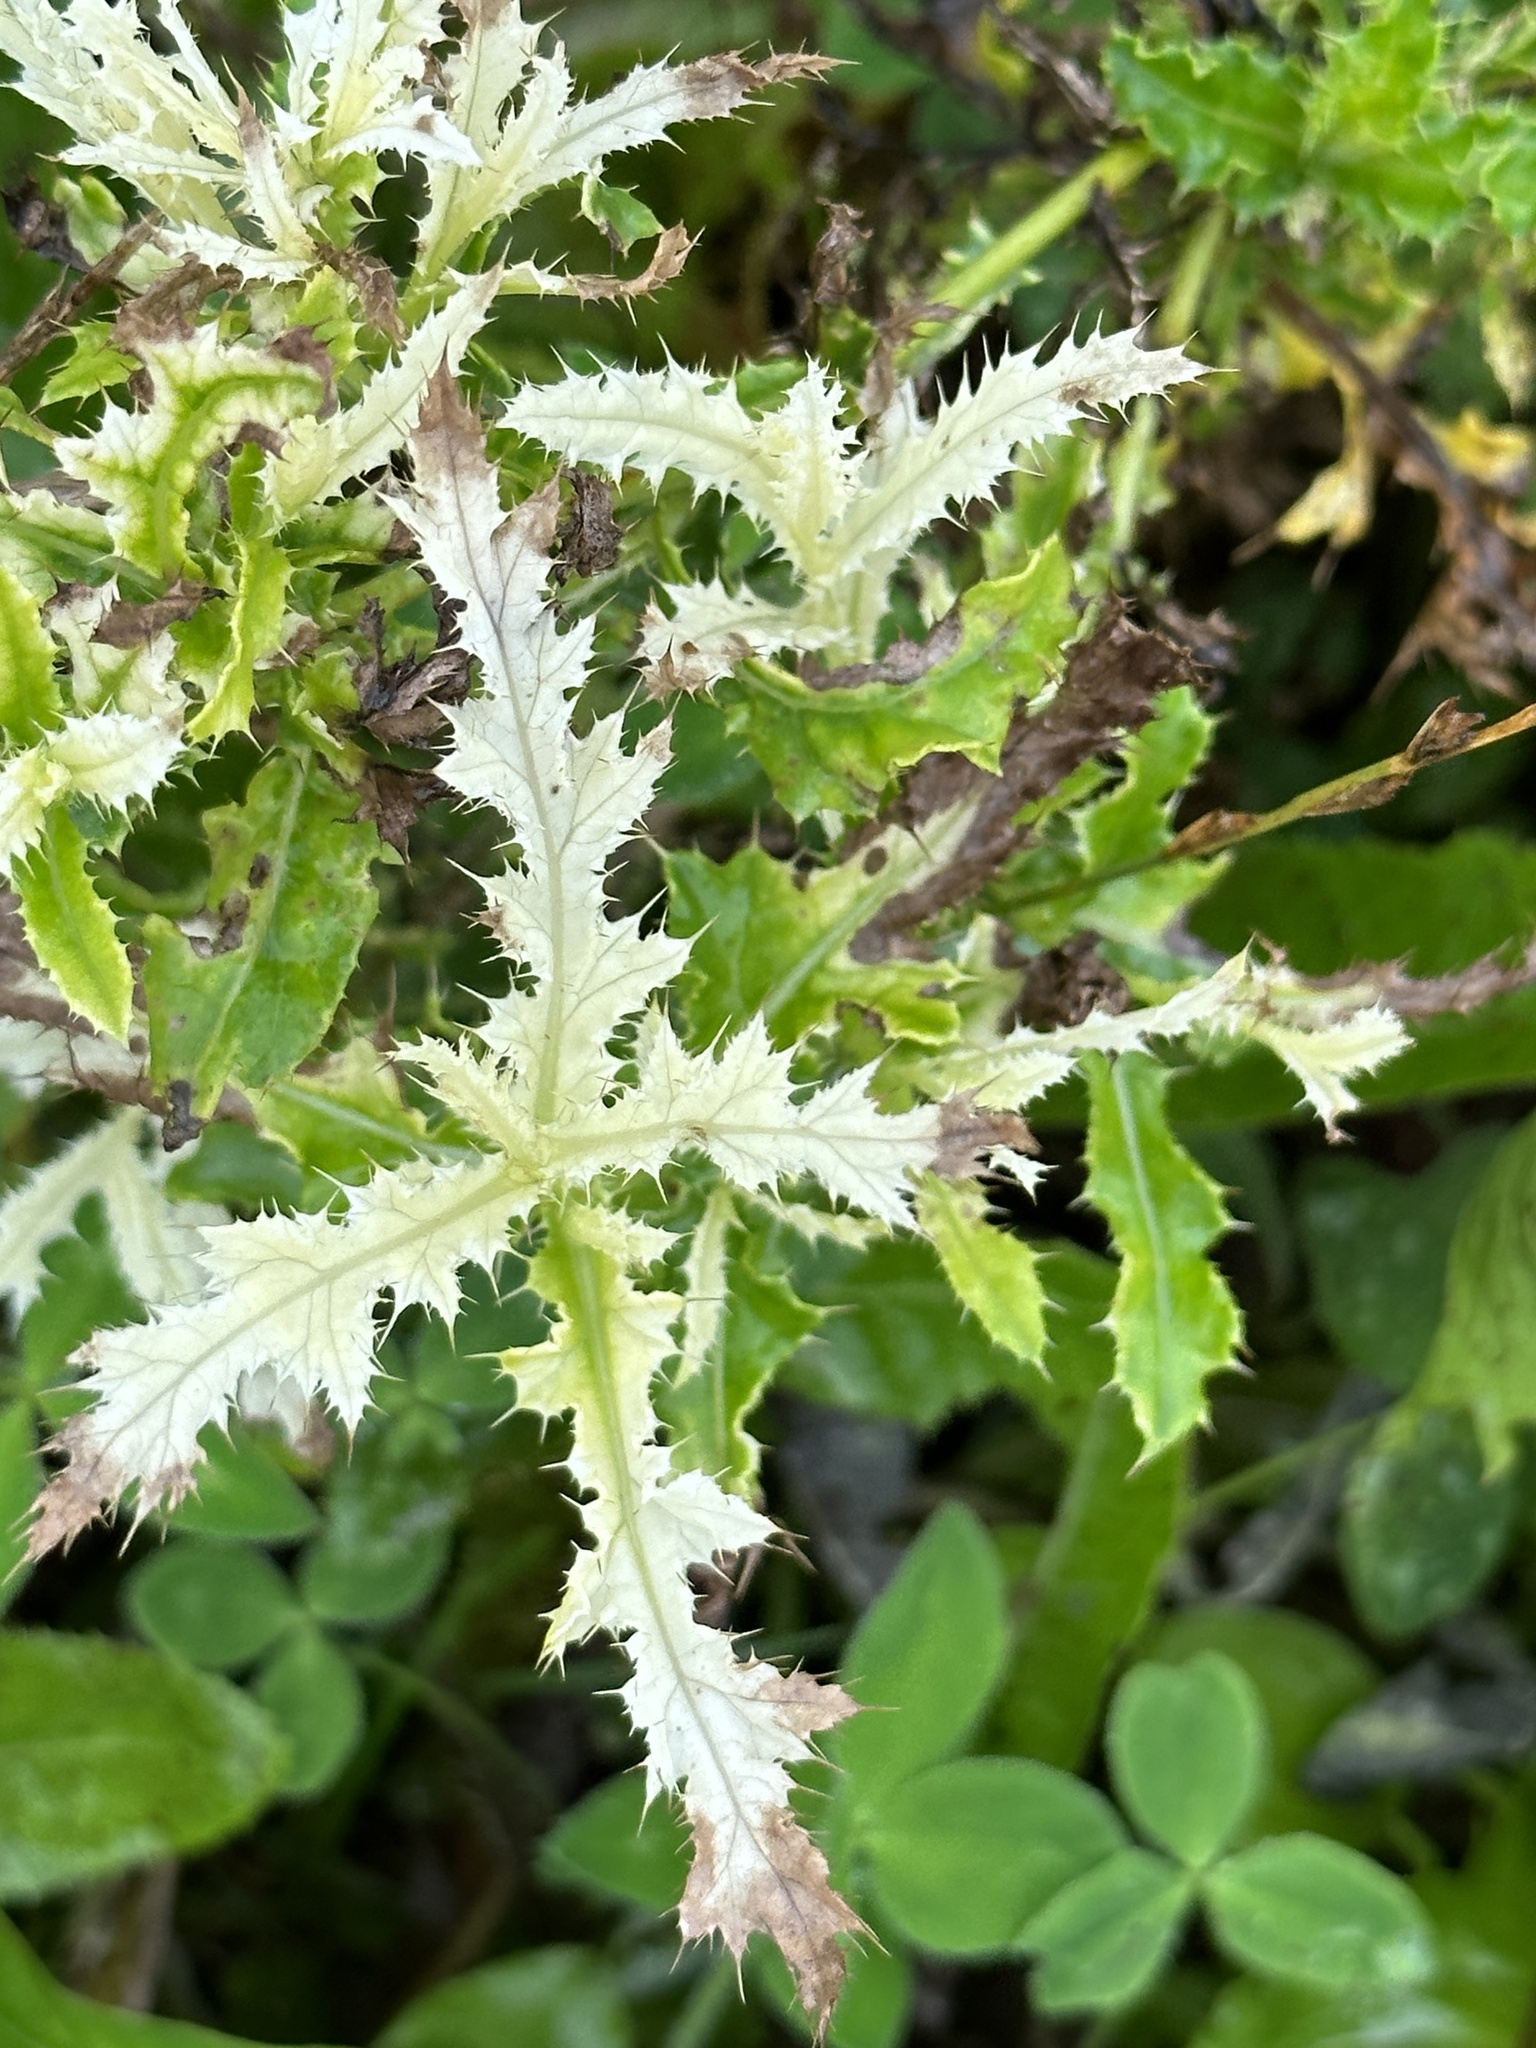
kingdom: Plantae
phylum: Tracheophyta
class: Magnoliopsida
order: Asterales
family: Asteraceae
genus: Cirsium
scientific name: Cirsium arvense
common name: Creeping thistle
